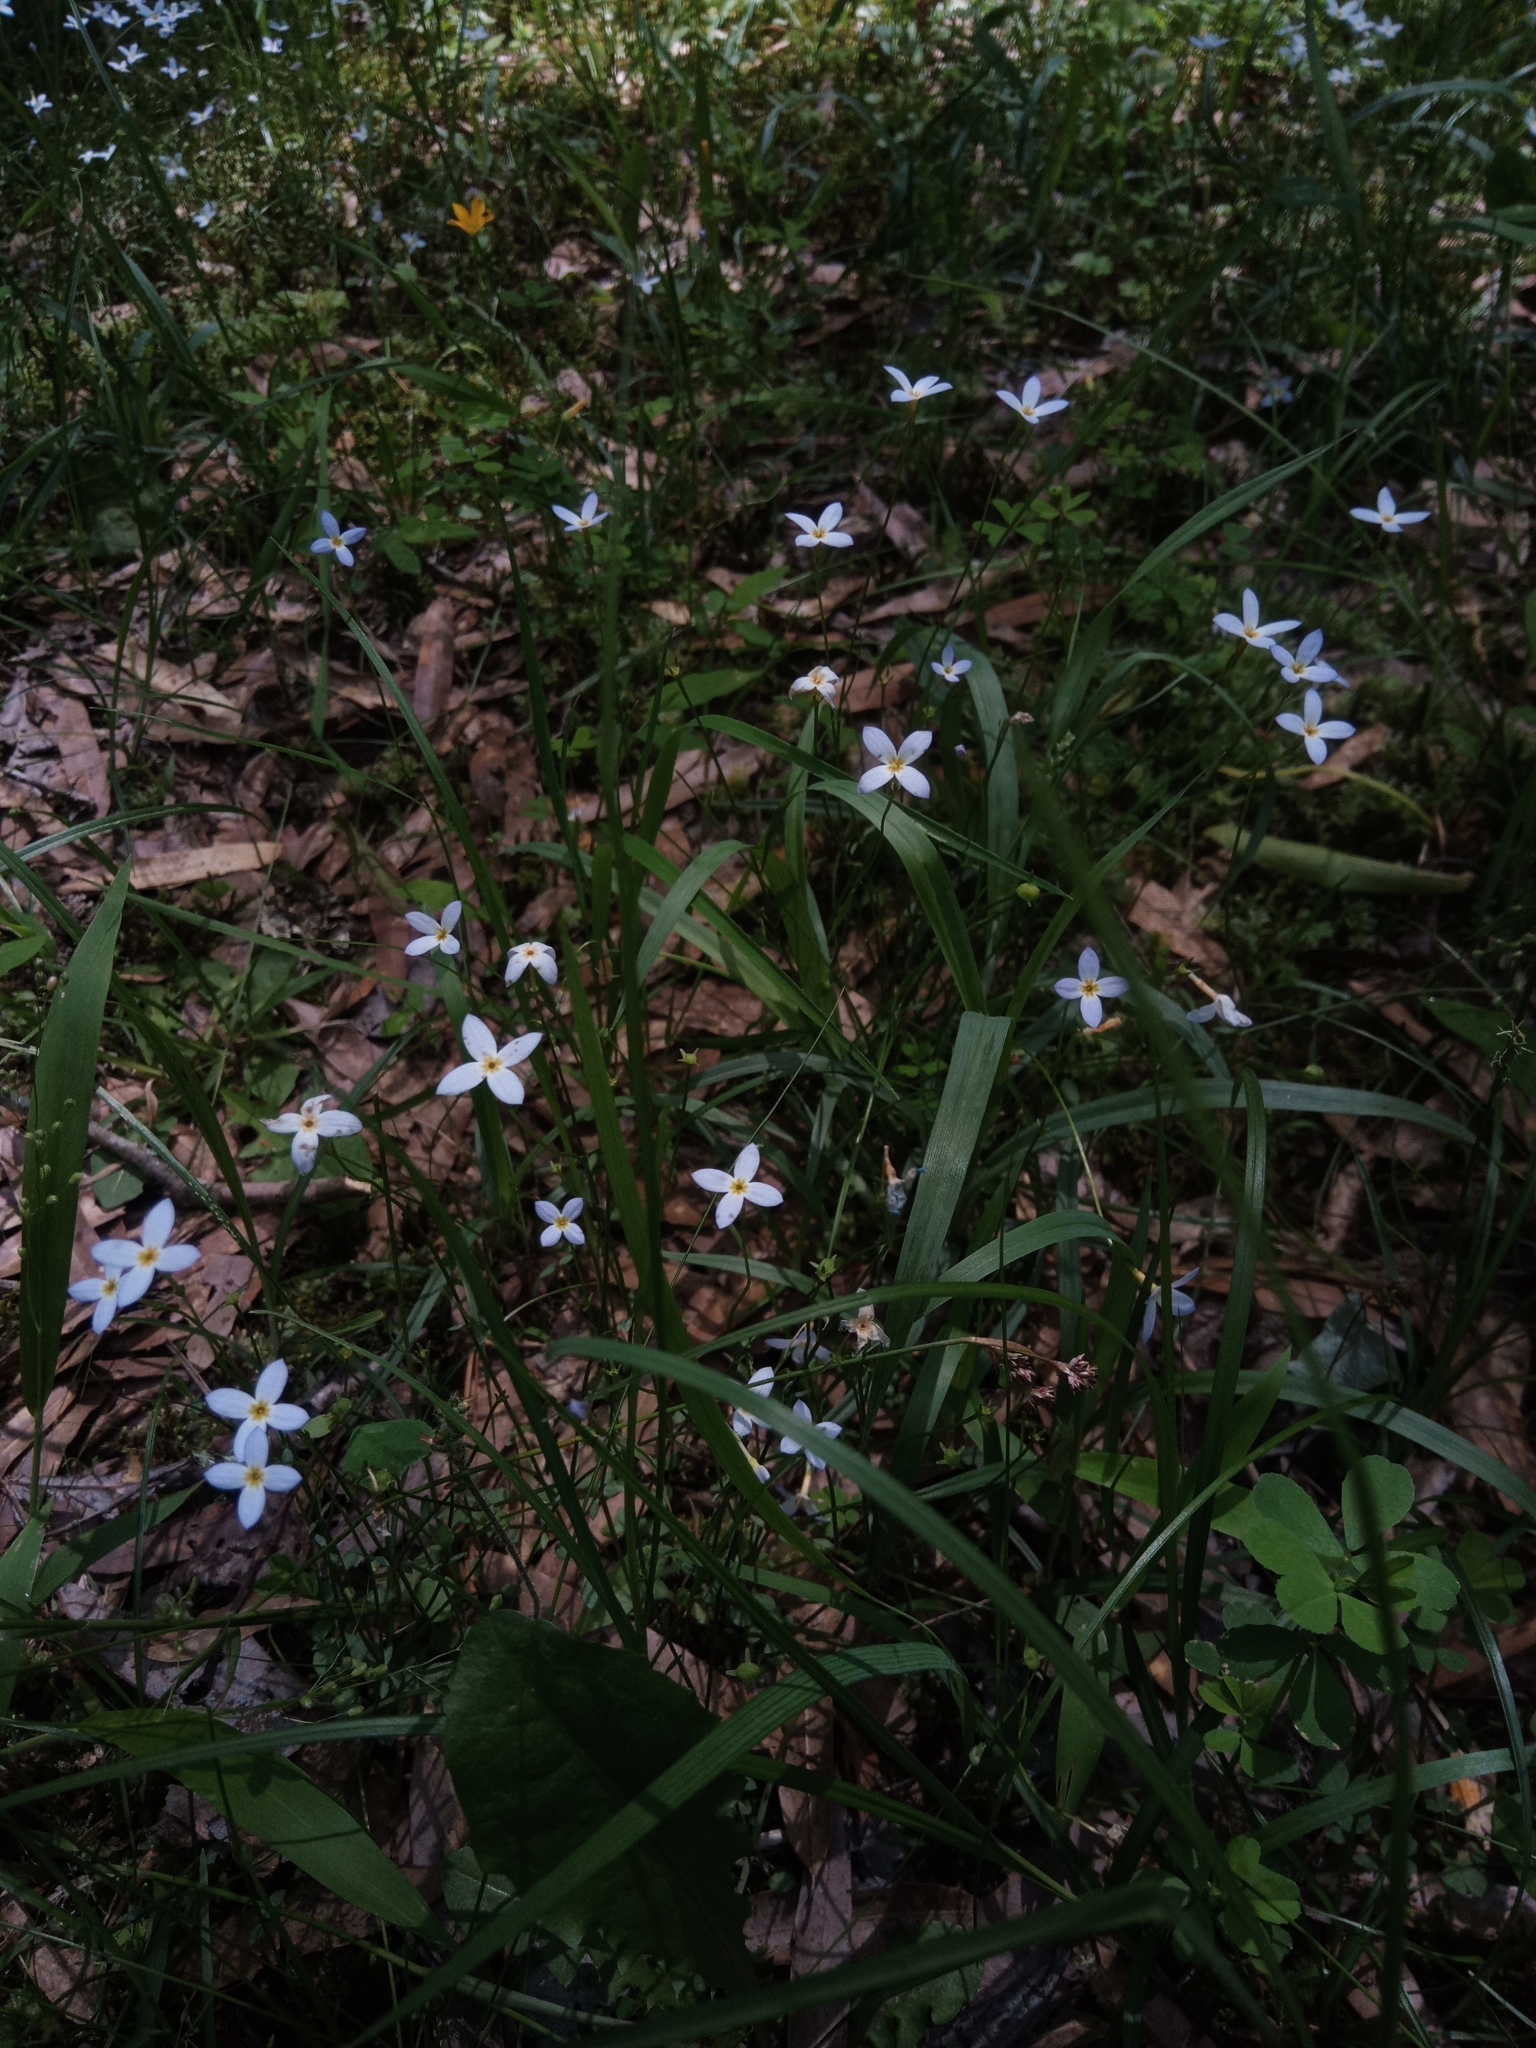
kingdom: Plantae
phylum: Tracheophyta
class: Magnoliopsida
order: Gentianales
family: Rubiaceae
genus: Houstonia
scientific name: Houstonia caerulea
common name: Bluets
